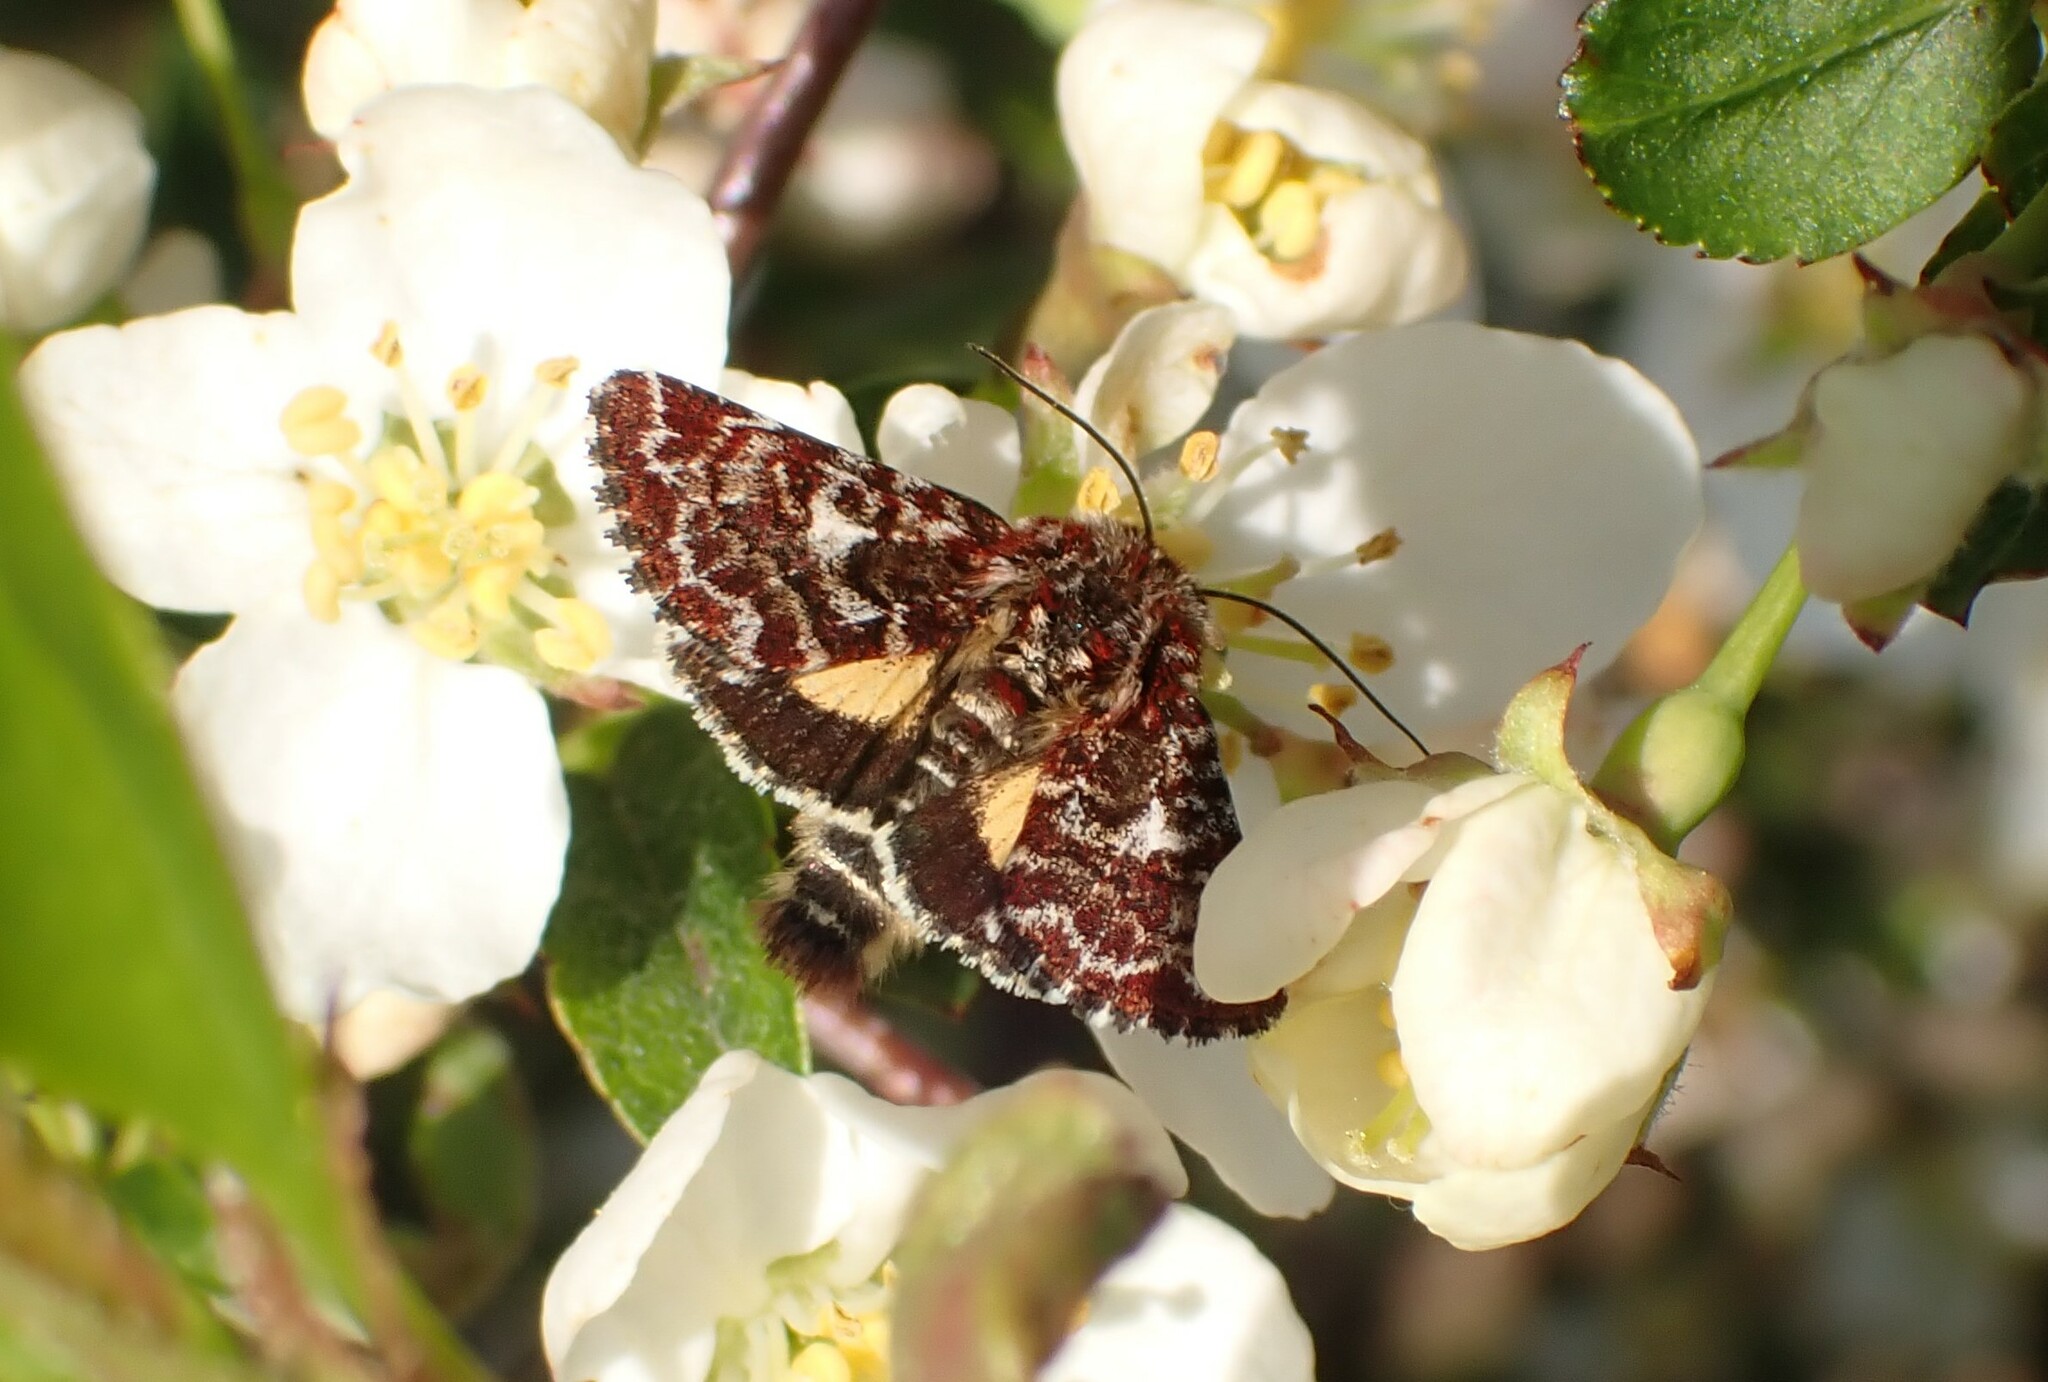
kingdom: Animalia
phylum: Arthropoda
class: Insecta
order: Lepidoptera
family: Noctuidae
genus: Anarta
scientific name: Anarta myrtilli
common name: Beautiful yellow underwing
